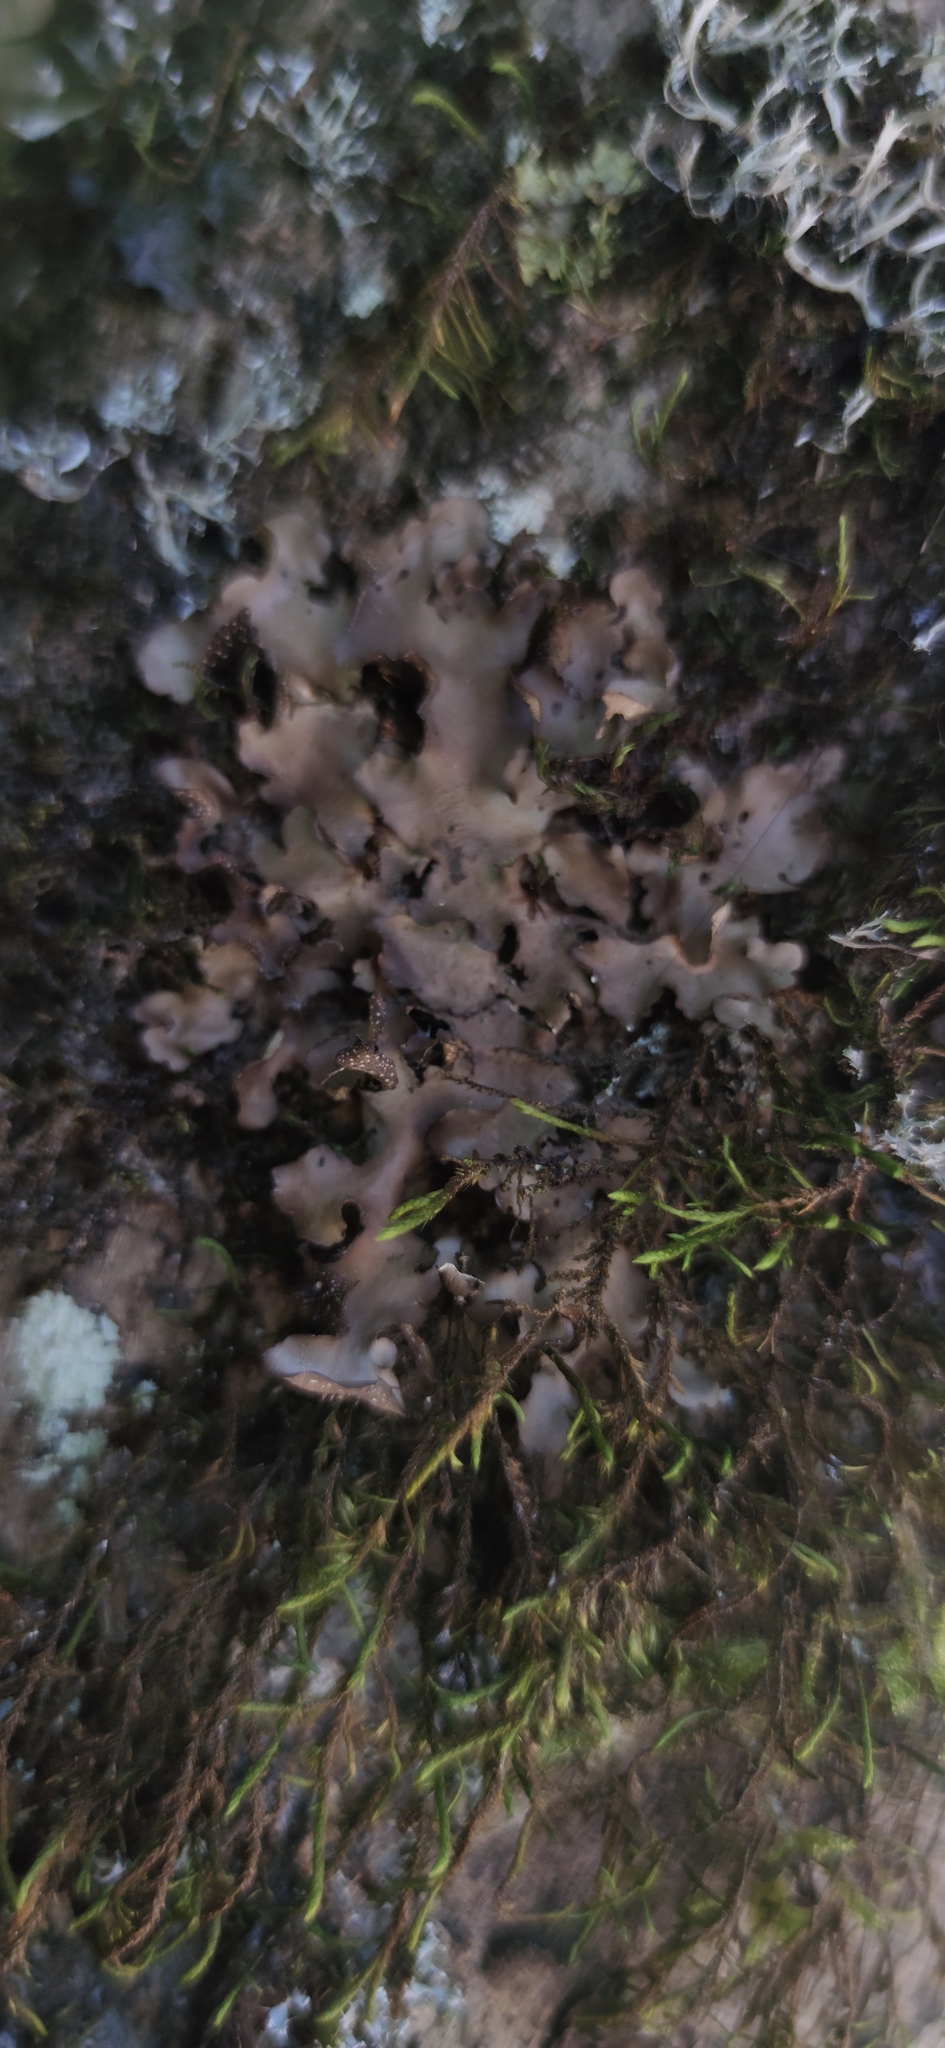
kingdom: Fungi
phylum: Ascomycota
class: Lecanoromycetes
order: Peltigerales
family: Lobariaceae
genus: Pseudocyphellaria
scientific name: Pseudocyphellaria aurata
